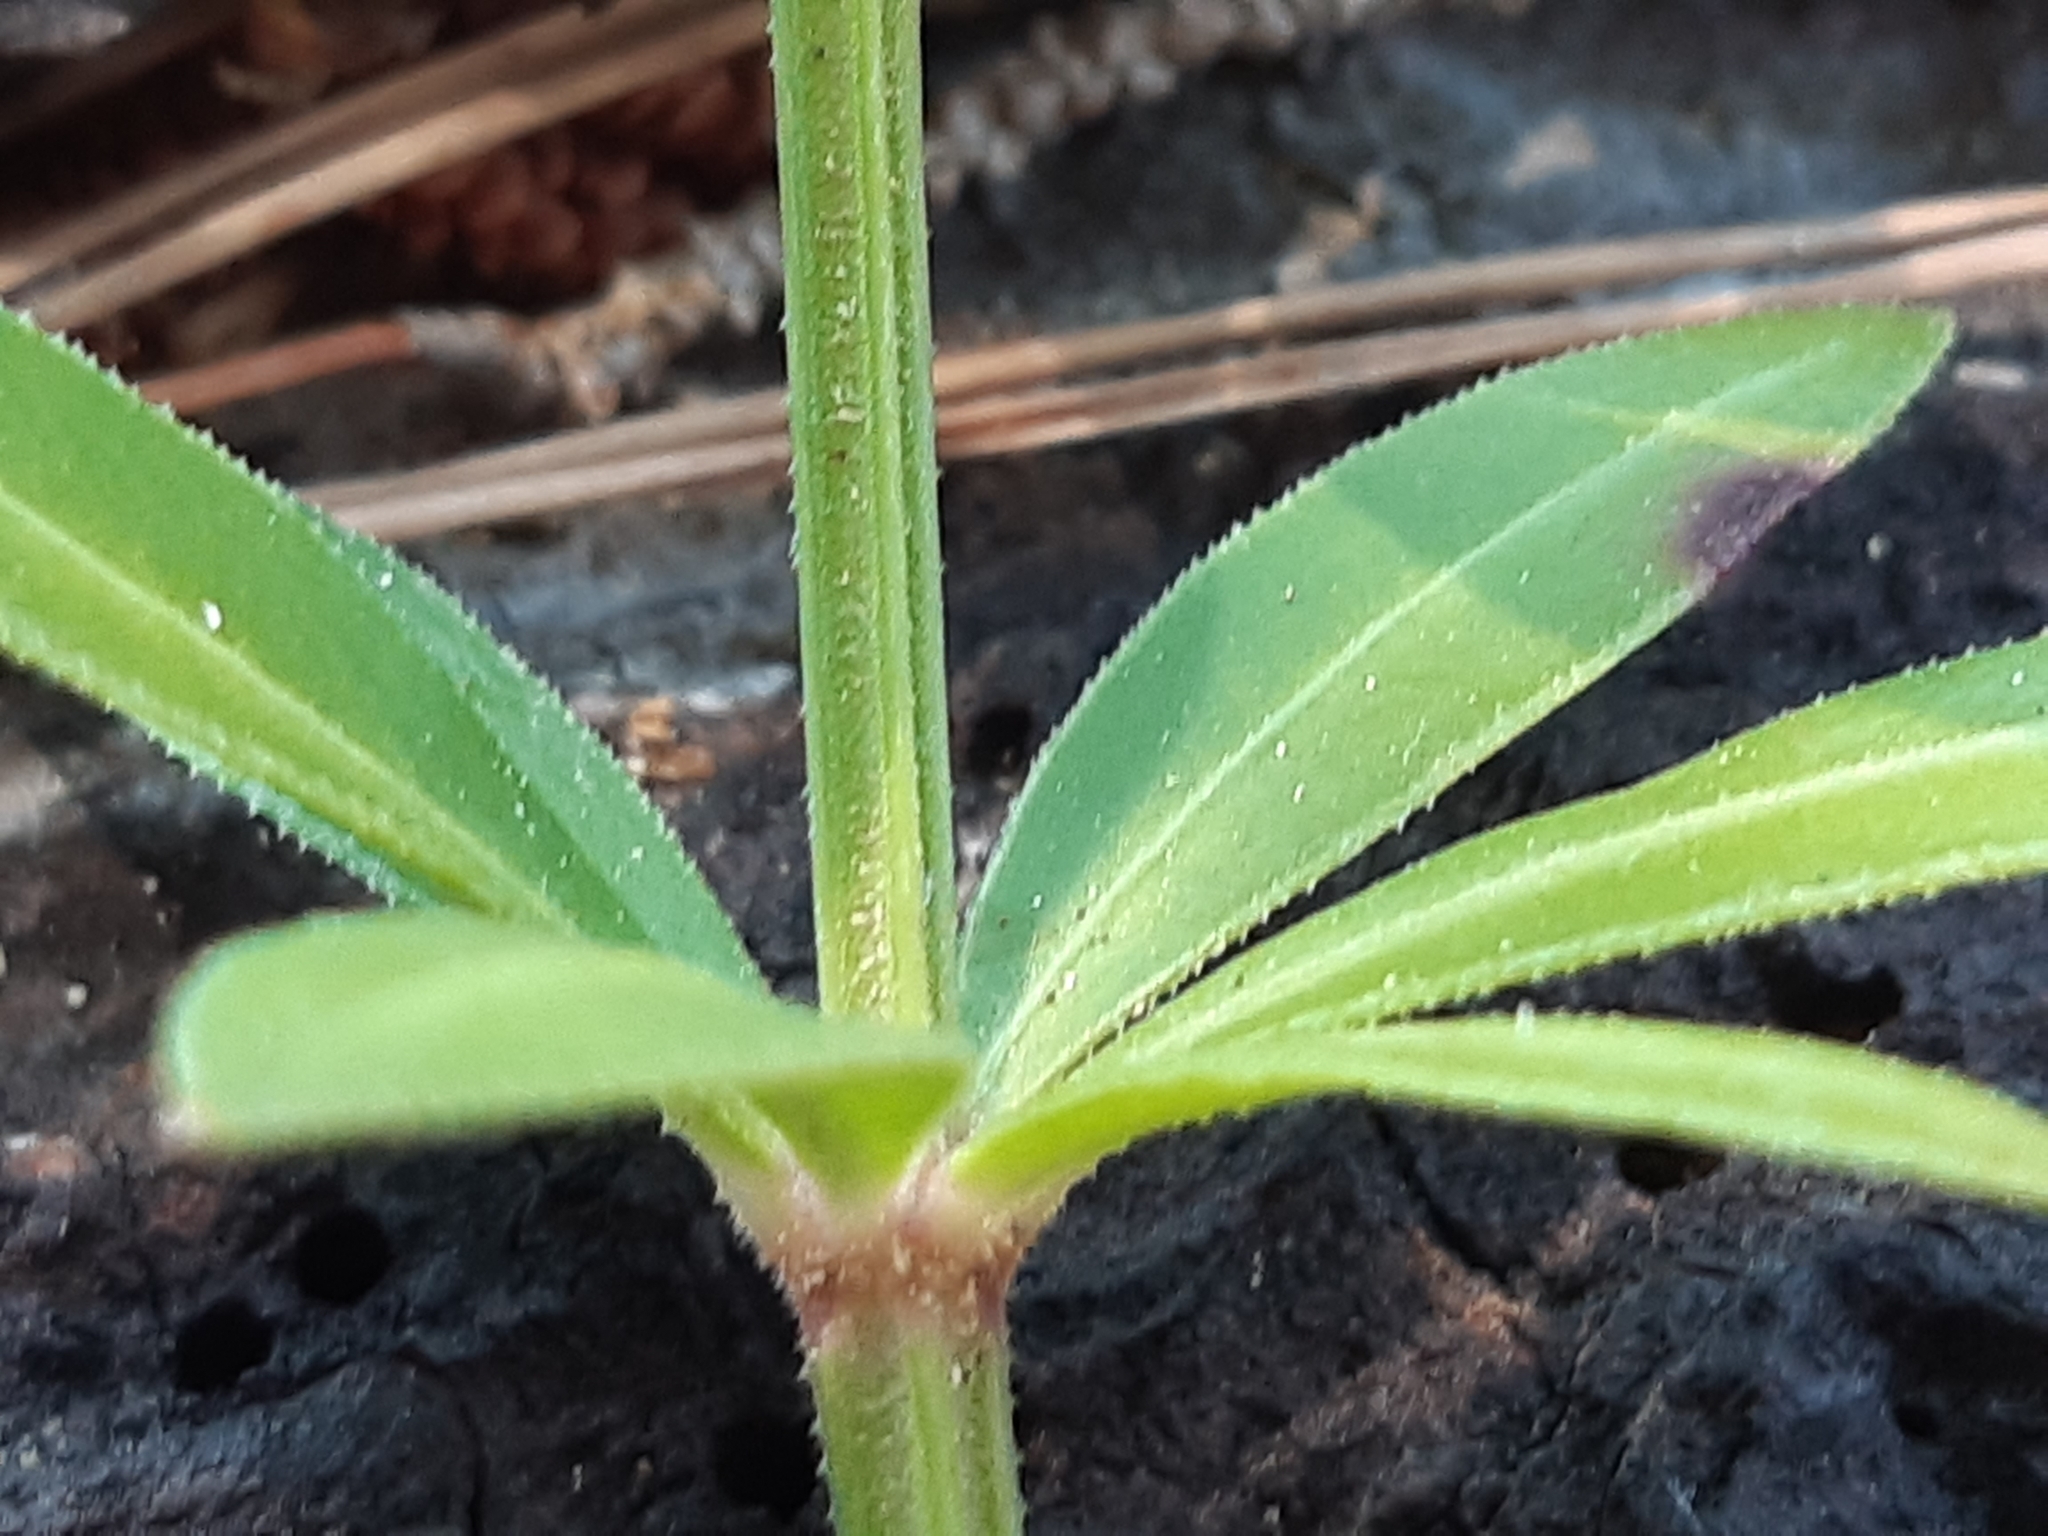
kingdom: Plantae
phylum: Tracheophyta
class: Magnoliopsida
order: Gentianales
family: Rubiaceae
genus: Rubia
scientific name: Rubia peregrina
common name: Wild madder
